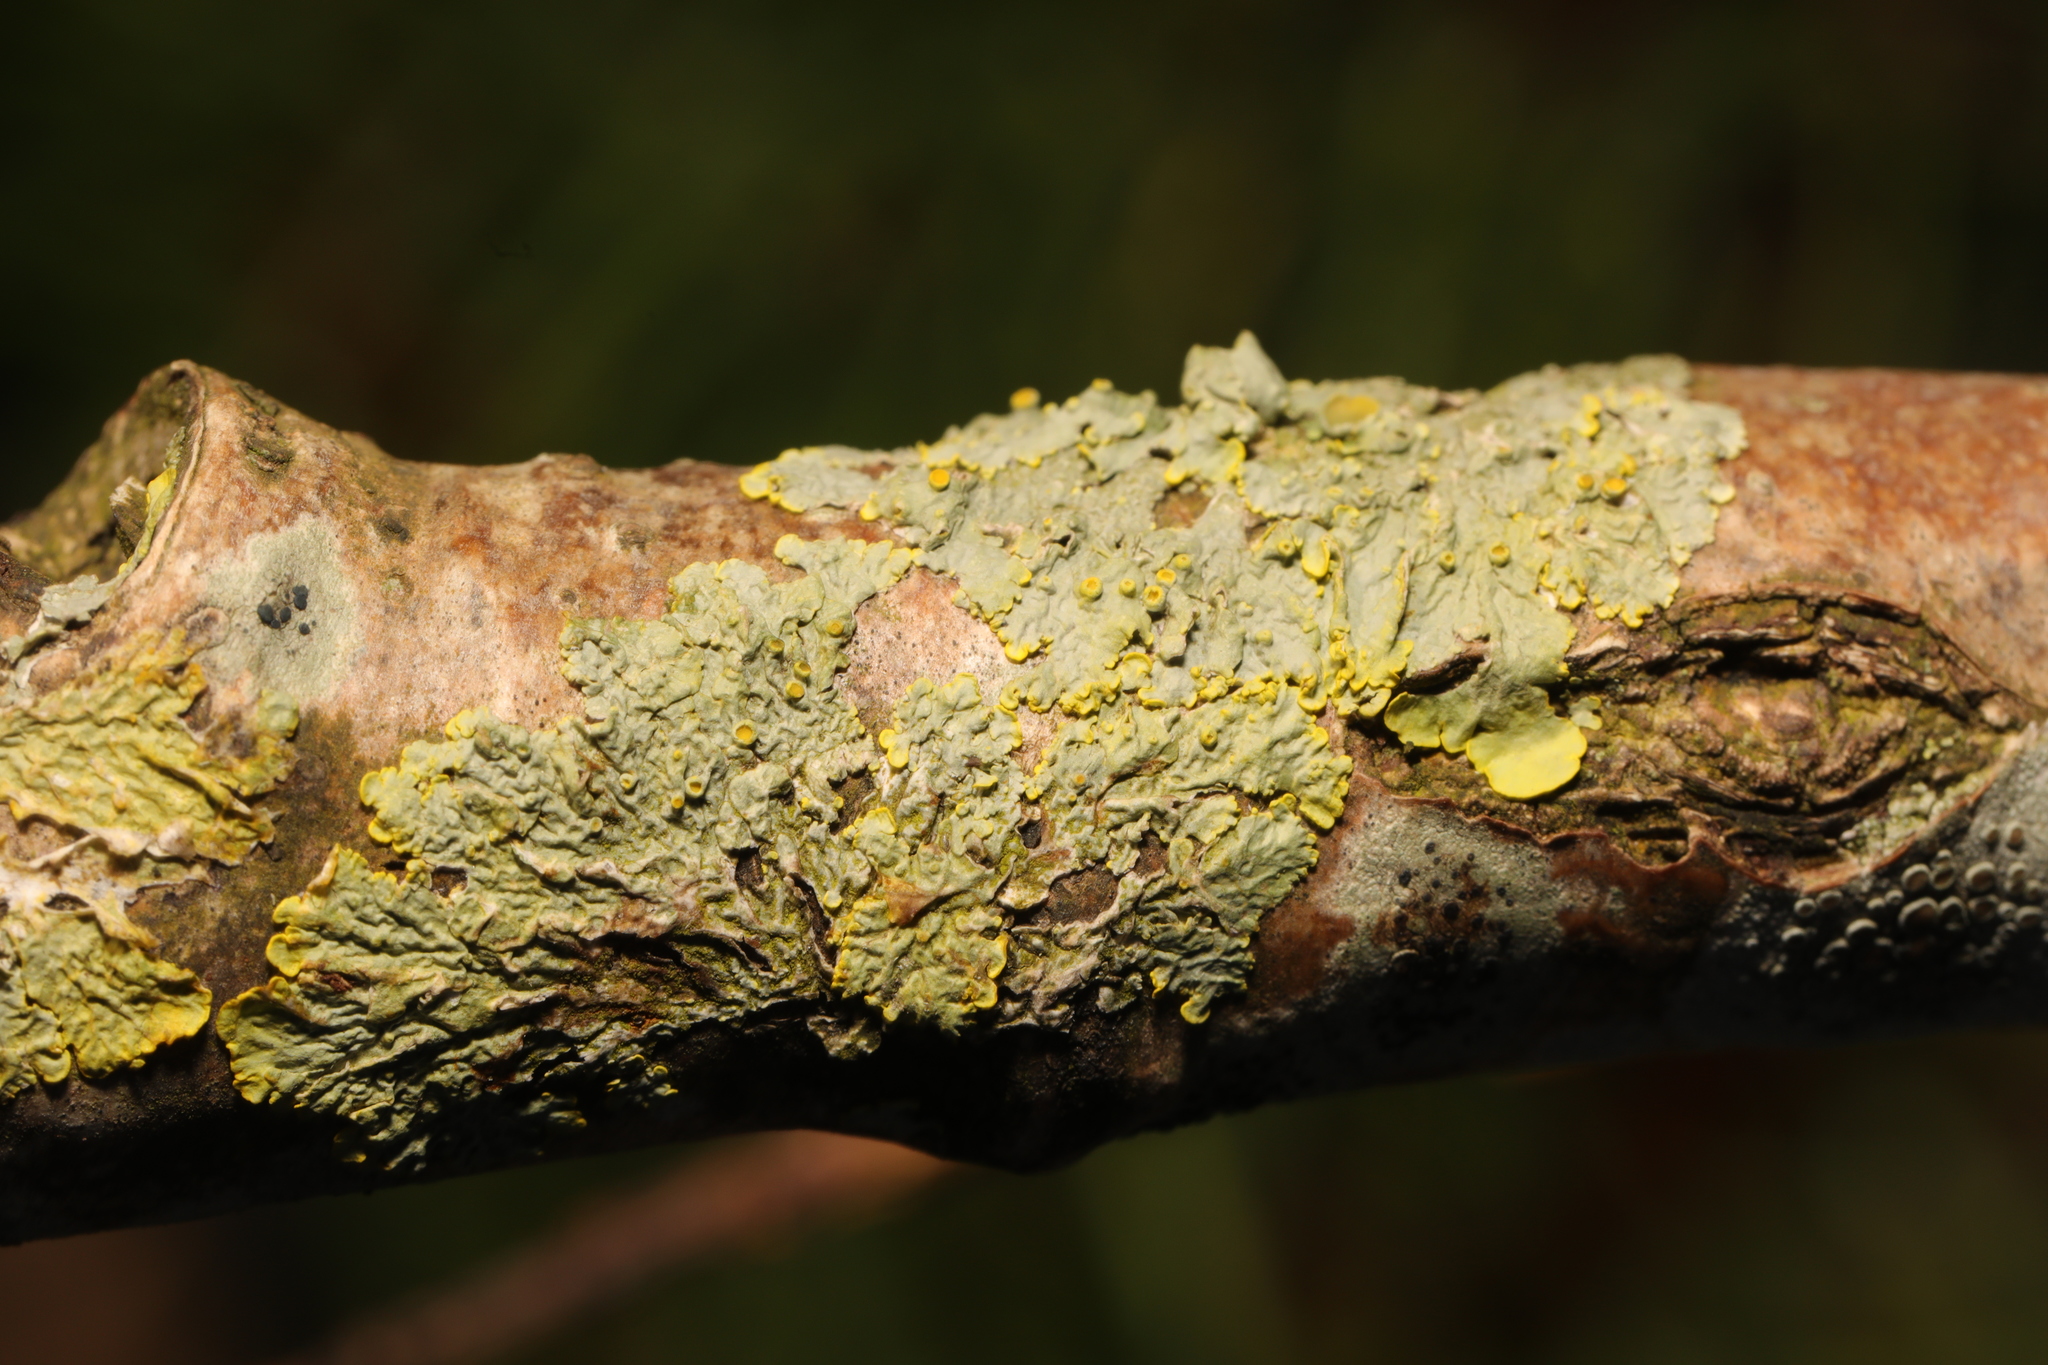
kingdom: Fungi
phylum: Ascomycota
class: Lecanoromycetes
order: Teloschistales
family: Teloschistaceae
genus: Xanthoria
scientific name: Xanthoria parietina
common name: Common orange lichen
